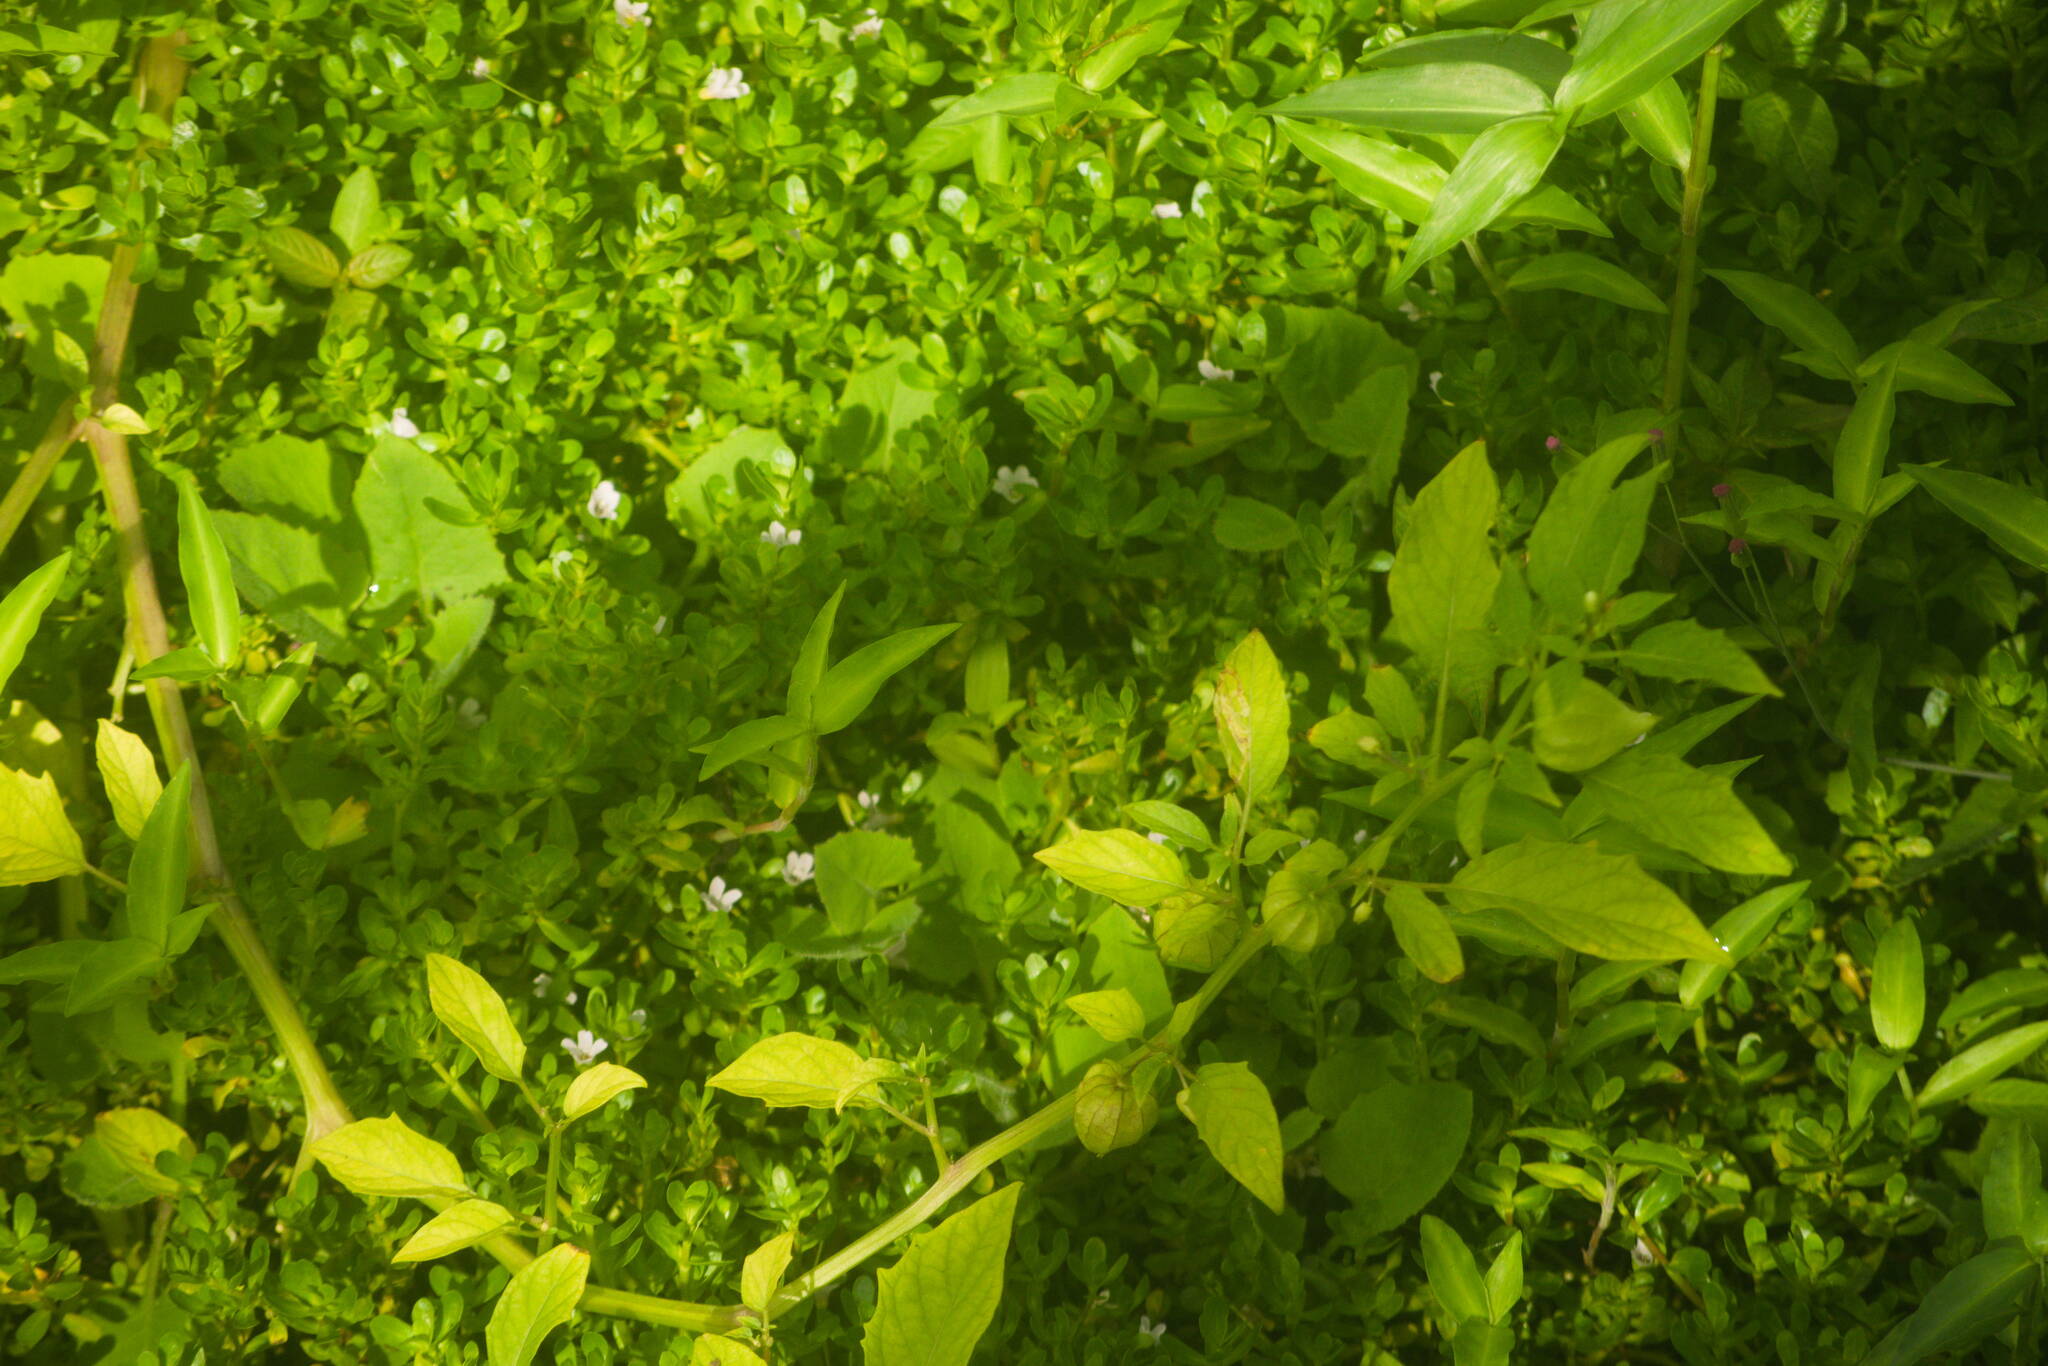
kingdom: Plantae
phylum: Tracheophyta
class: Magnoliopsida
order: Solanales
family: Solanaceae
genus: Physalis
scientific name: Physalis angulata
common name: Angular winter-cherry
